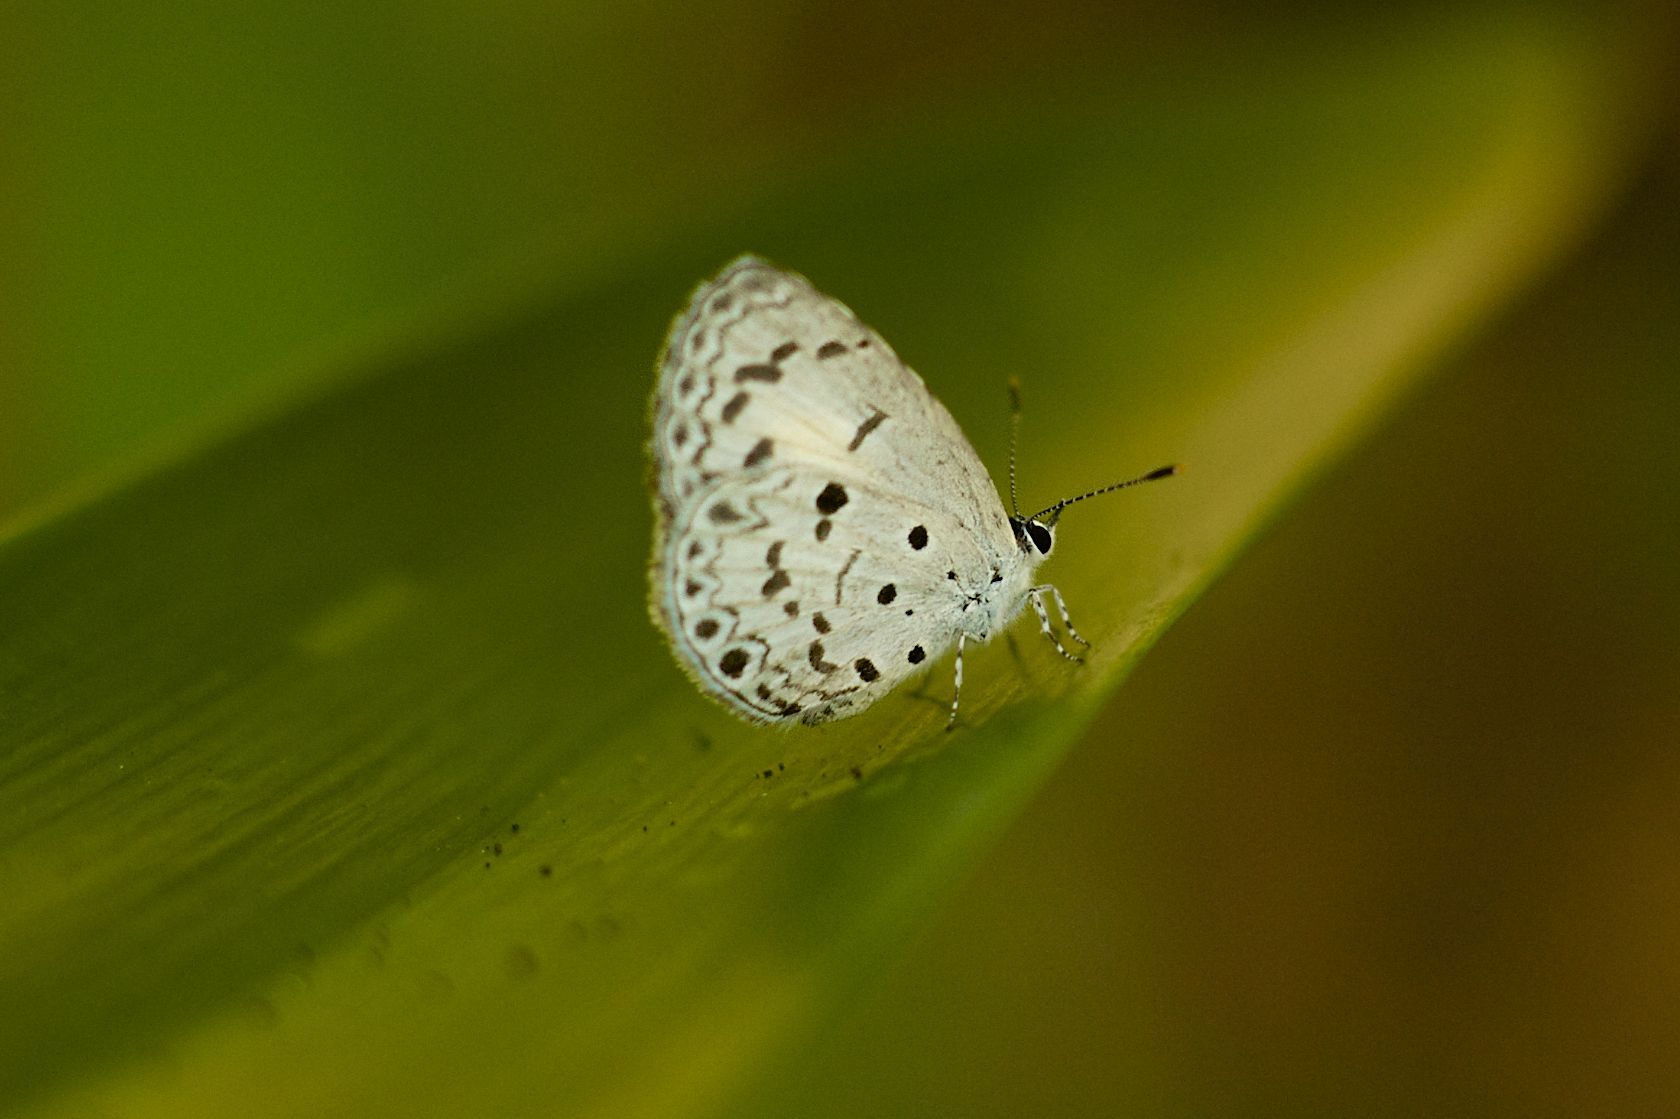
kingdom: Animalia
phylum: Arthropoda
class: Insecta
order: Lepidoptera
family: Lycaenidae
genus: Acytolepis
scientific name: Acytolepis puspa
